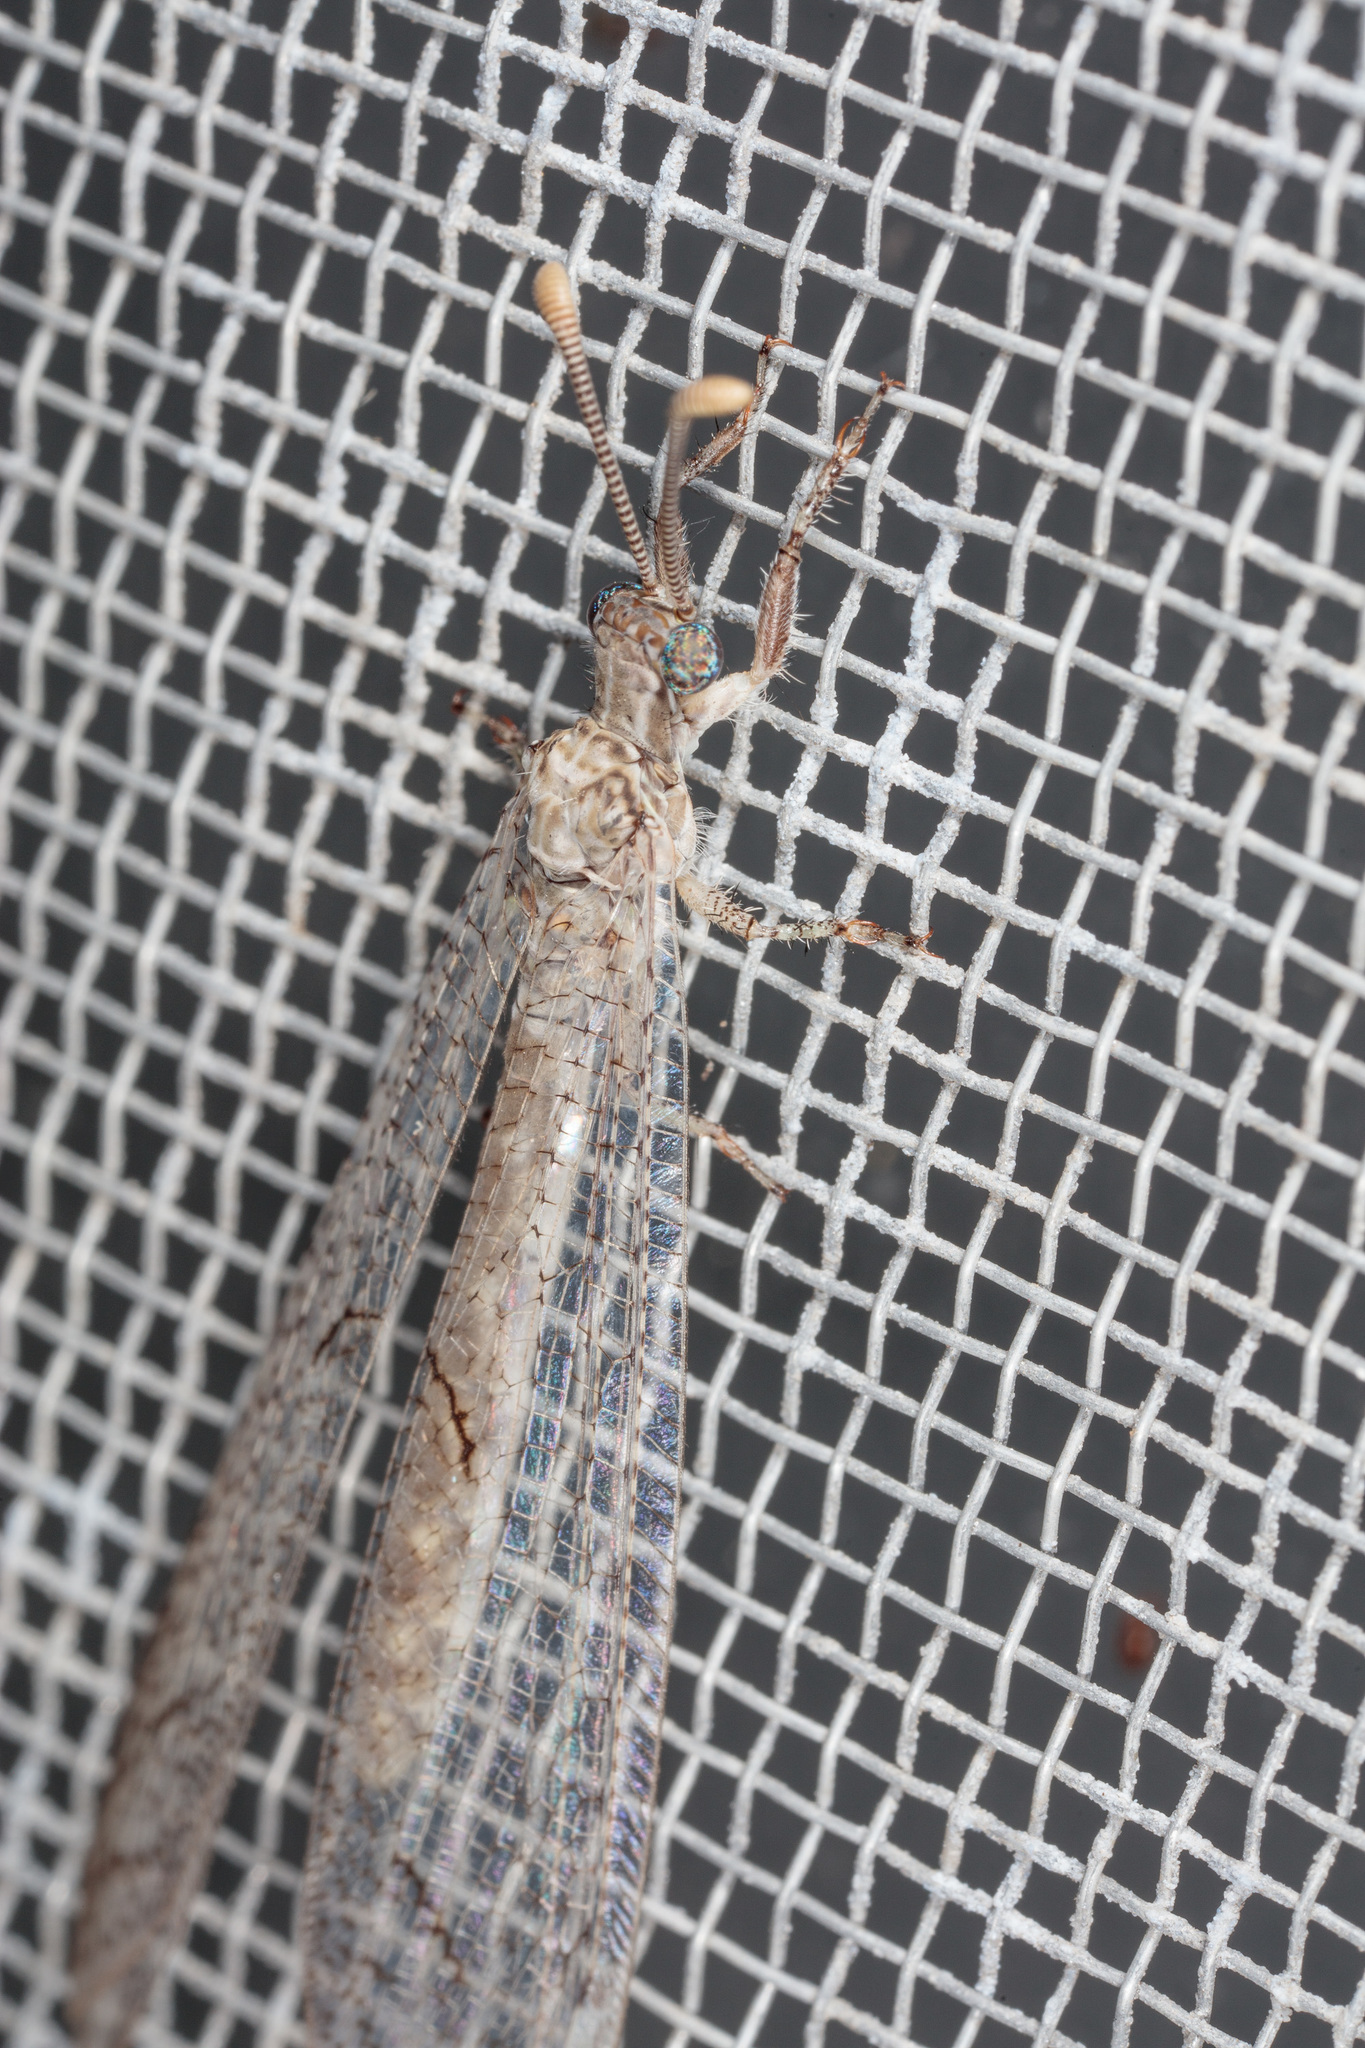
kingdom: Animalia
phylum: Arthropoda
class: Insecta
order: Neuroptera
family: Myrmeleontidae
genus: Euptilon
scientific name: Euptilon ornatum
